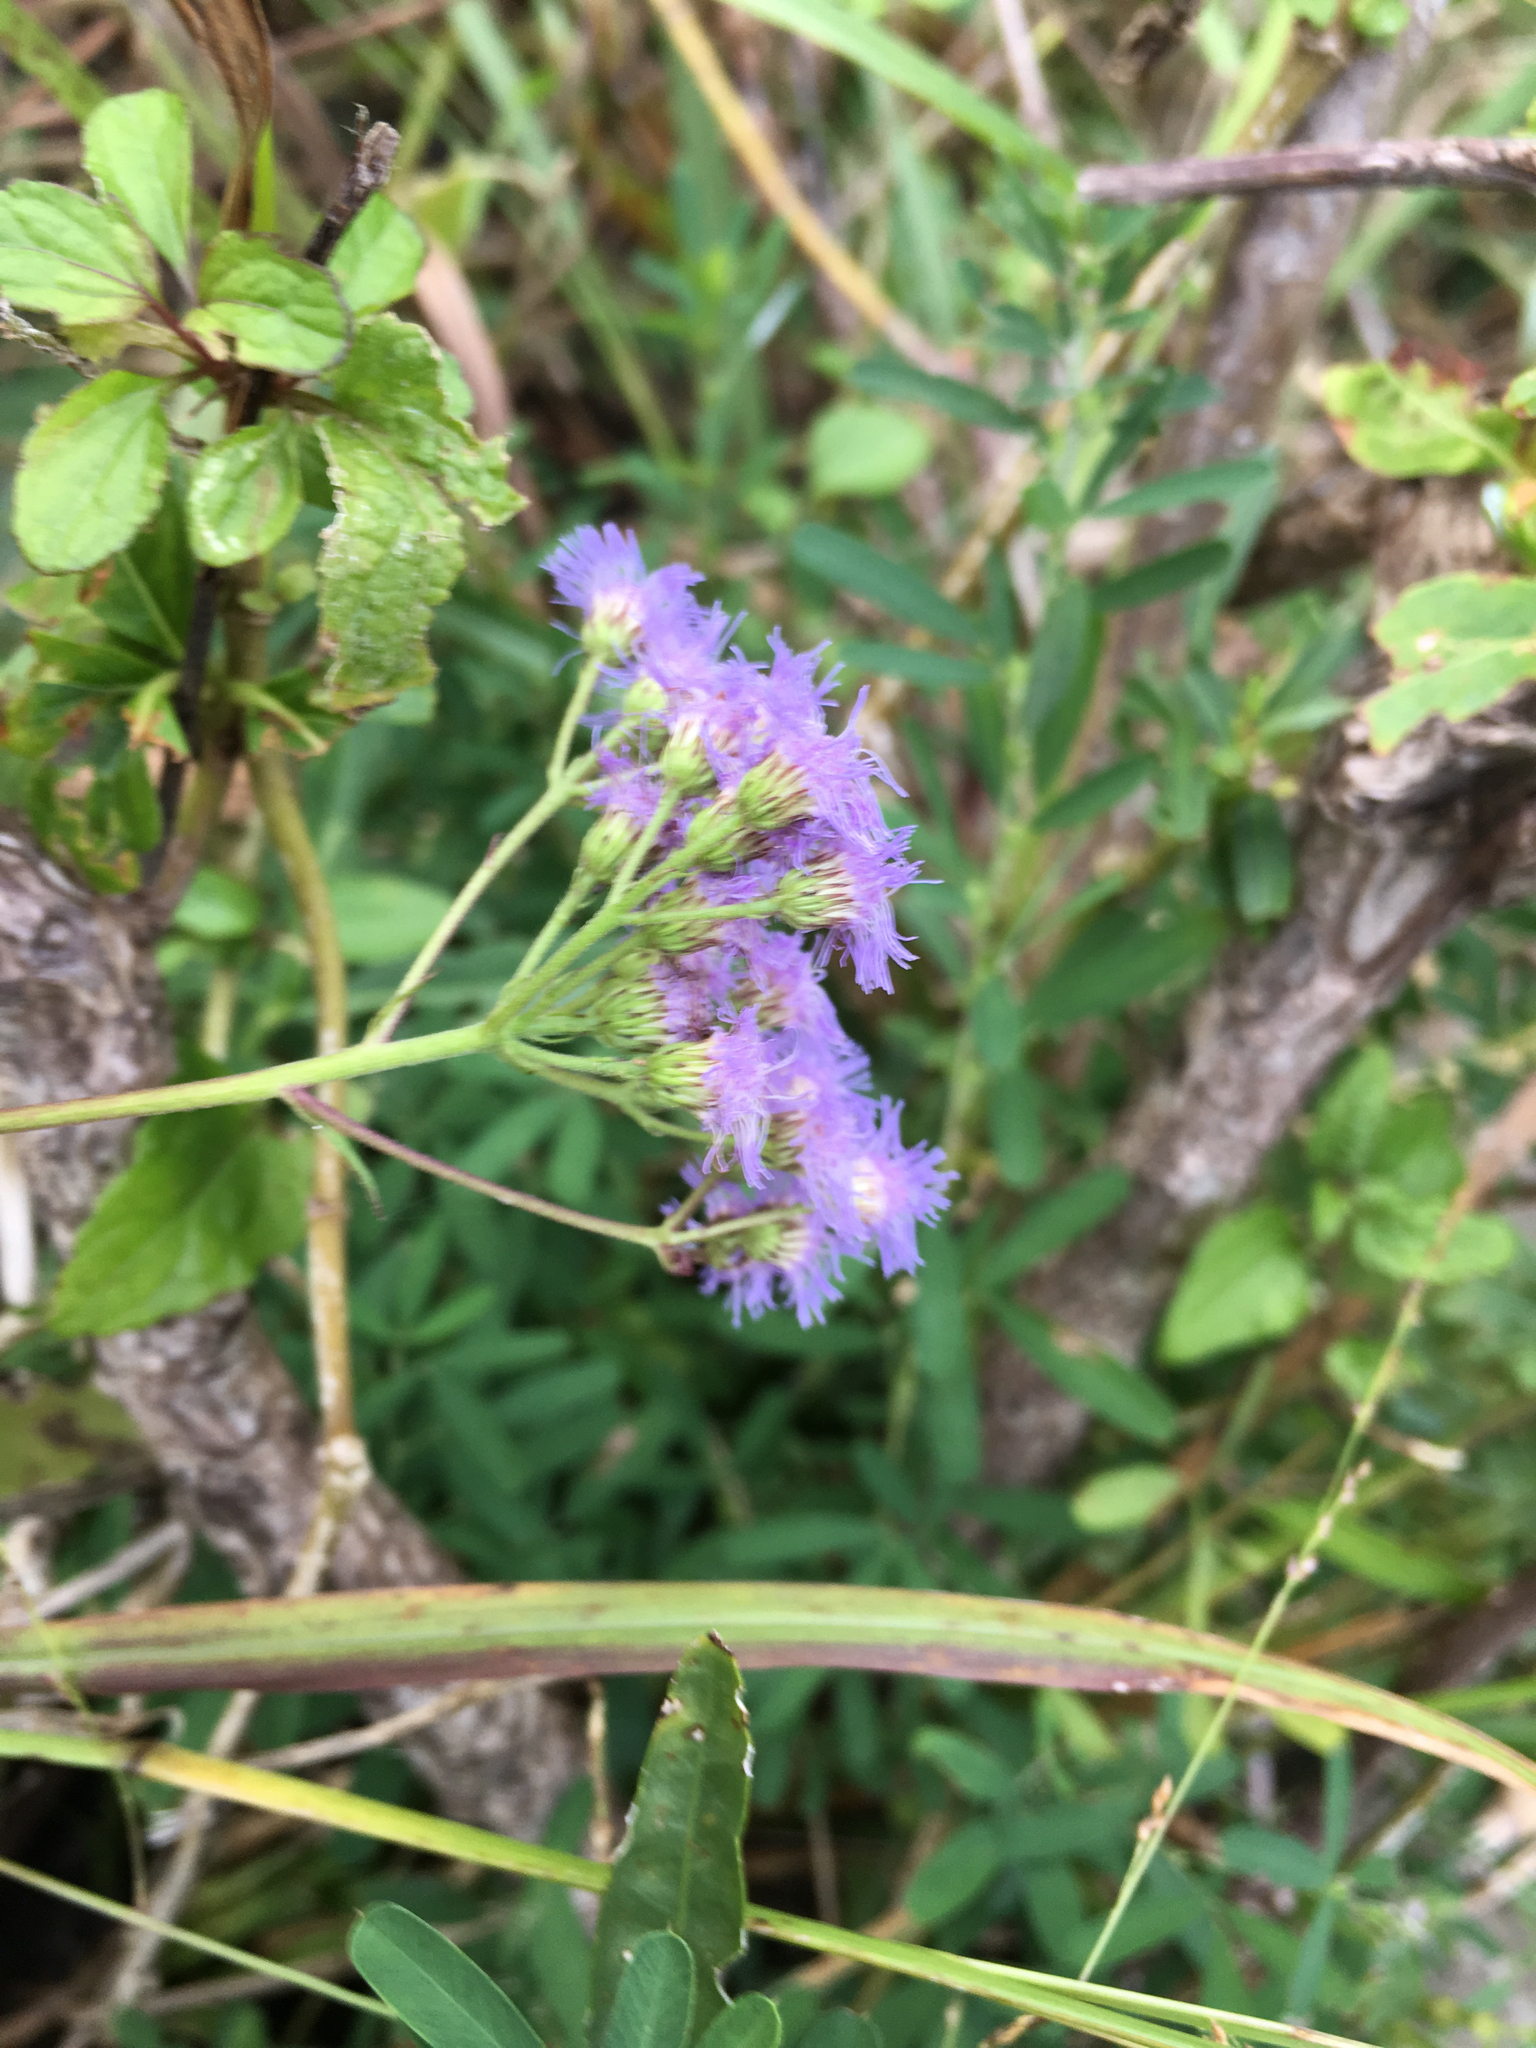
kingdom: Plantae
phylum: Tracheophyta
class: Magnoliopsida
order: Asterales
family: Asteraceae
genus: Conoclinium
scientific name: Conoclinium coelestinum
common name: Blue mistflower
